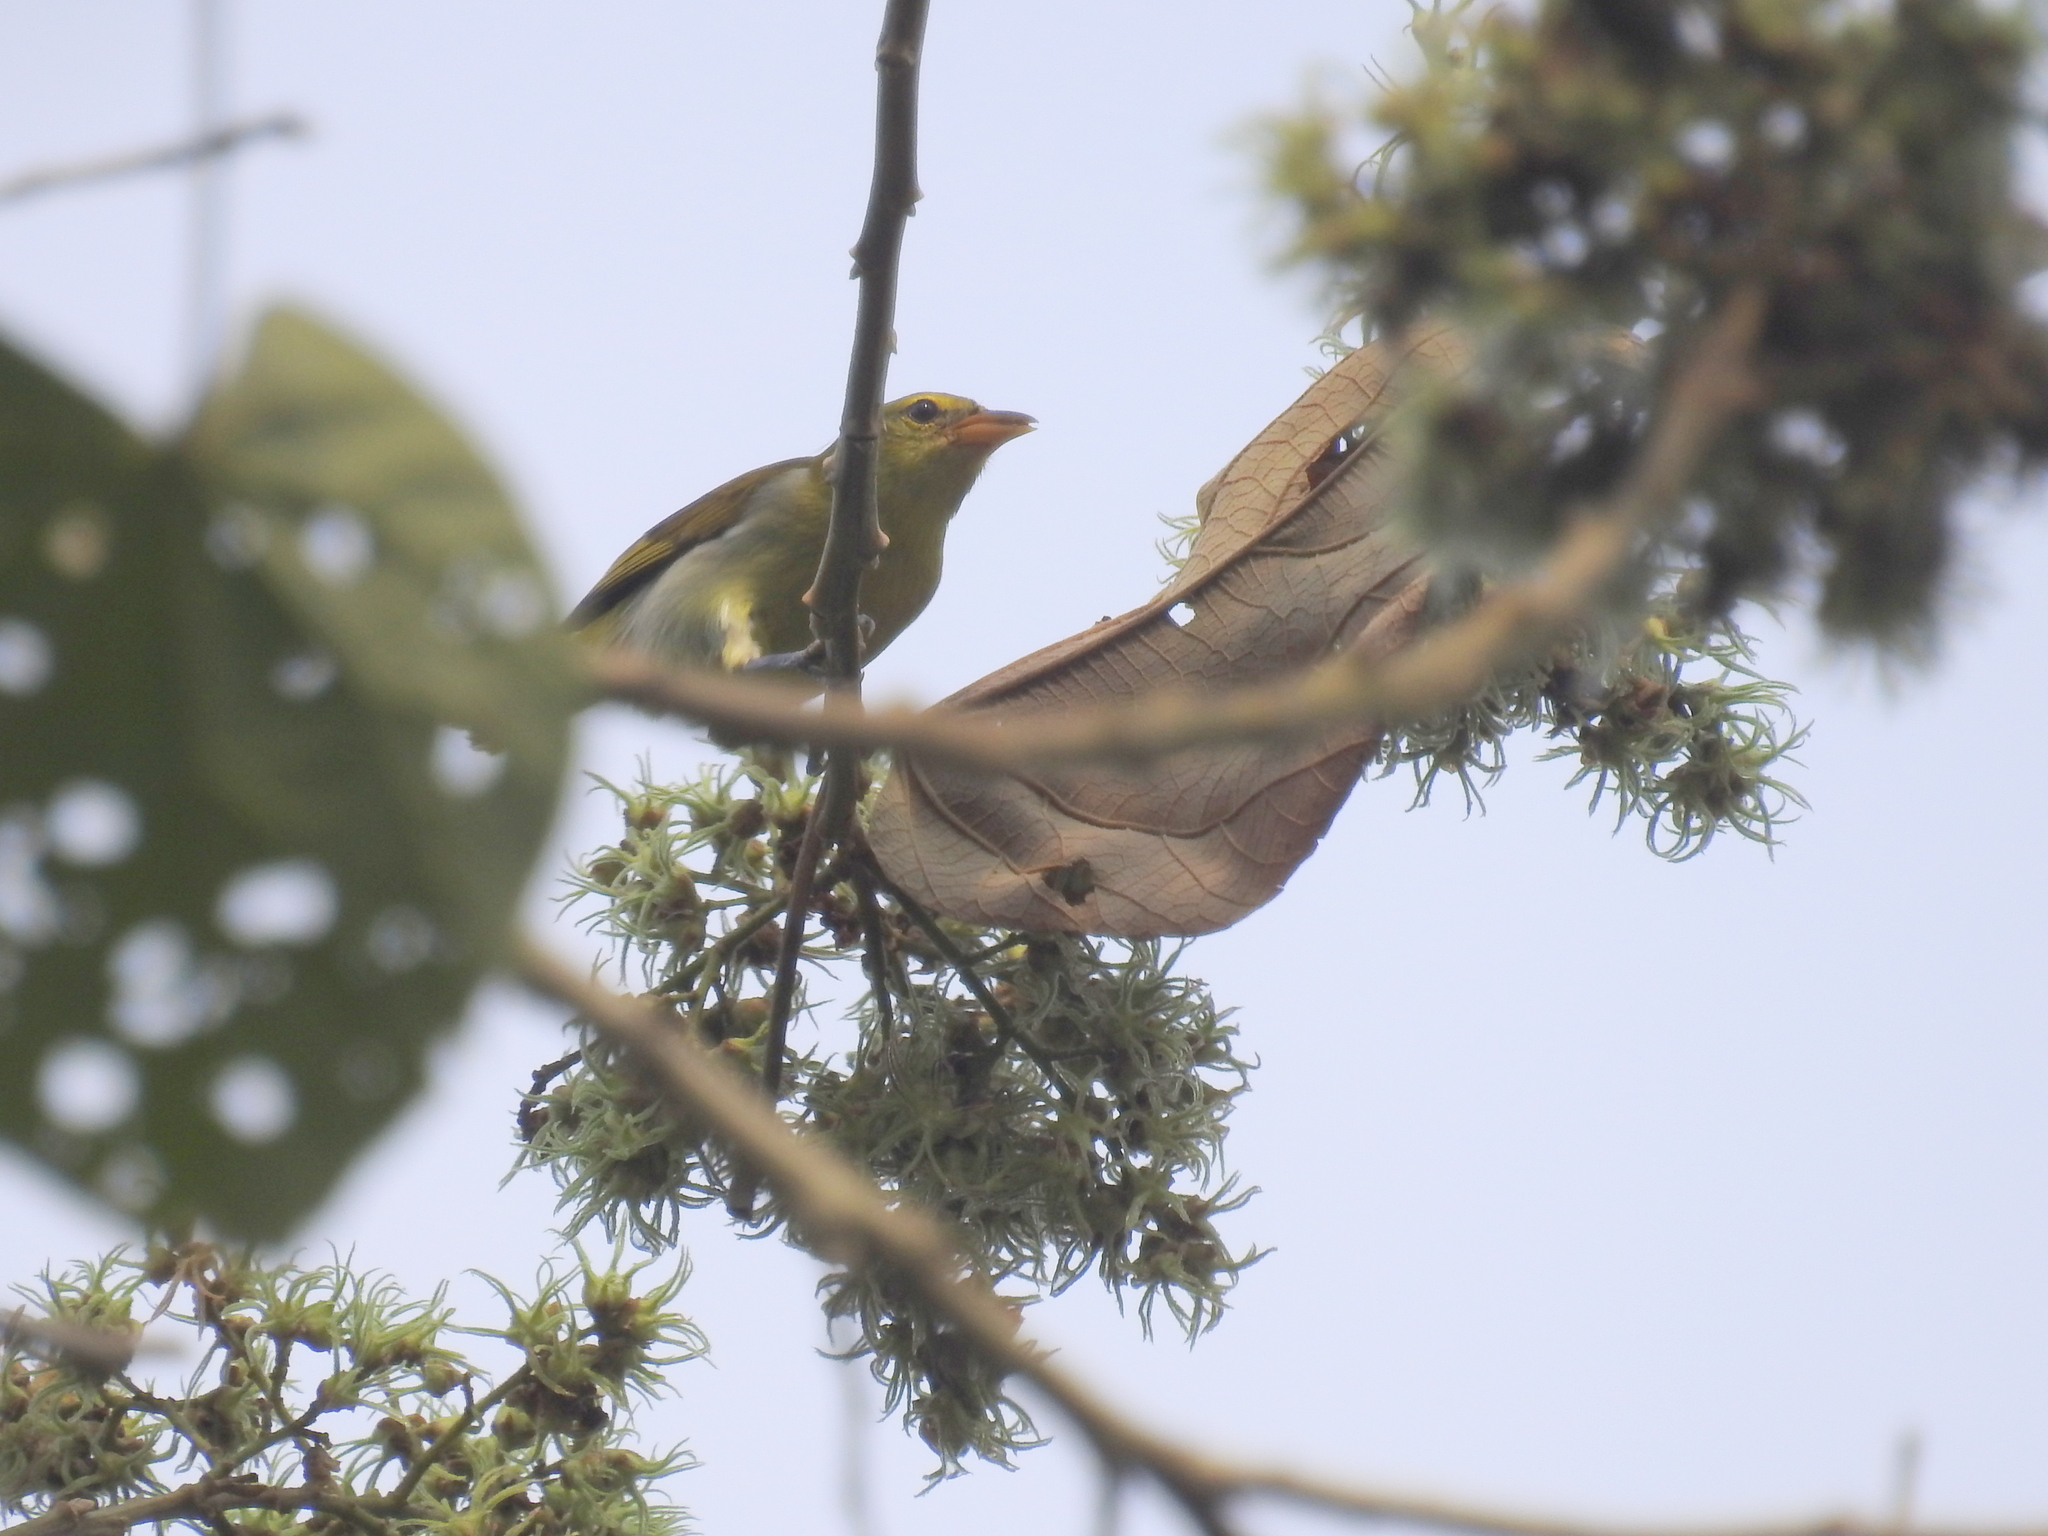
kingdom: Animalia
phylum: Chordata
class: Aves
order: Passeriformes
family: Thraupidae
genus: Hemithraupis
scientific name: Hemithraupis guira
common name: Guira tanager
